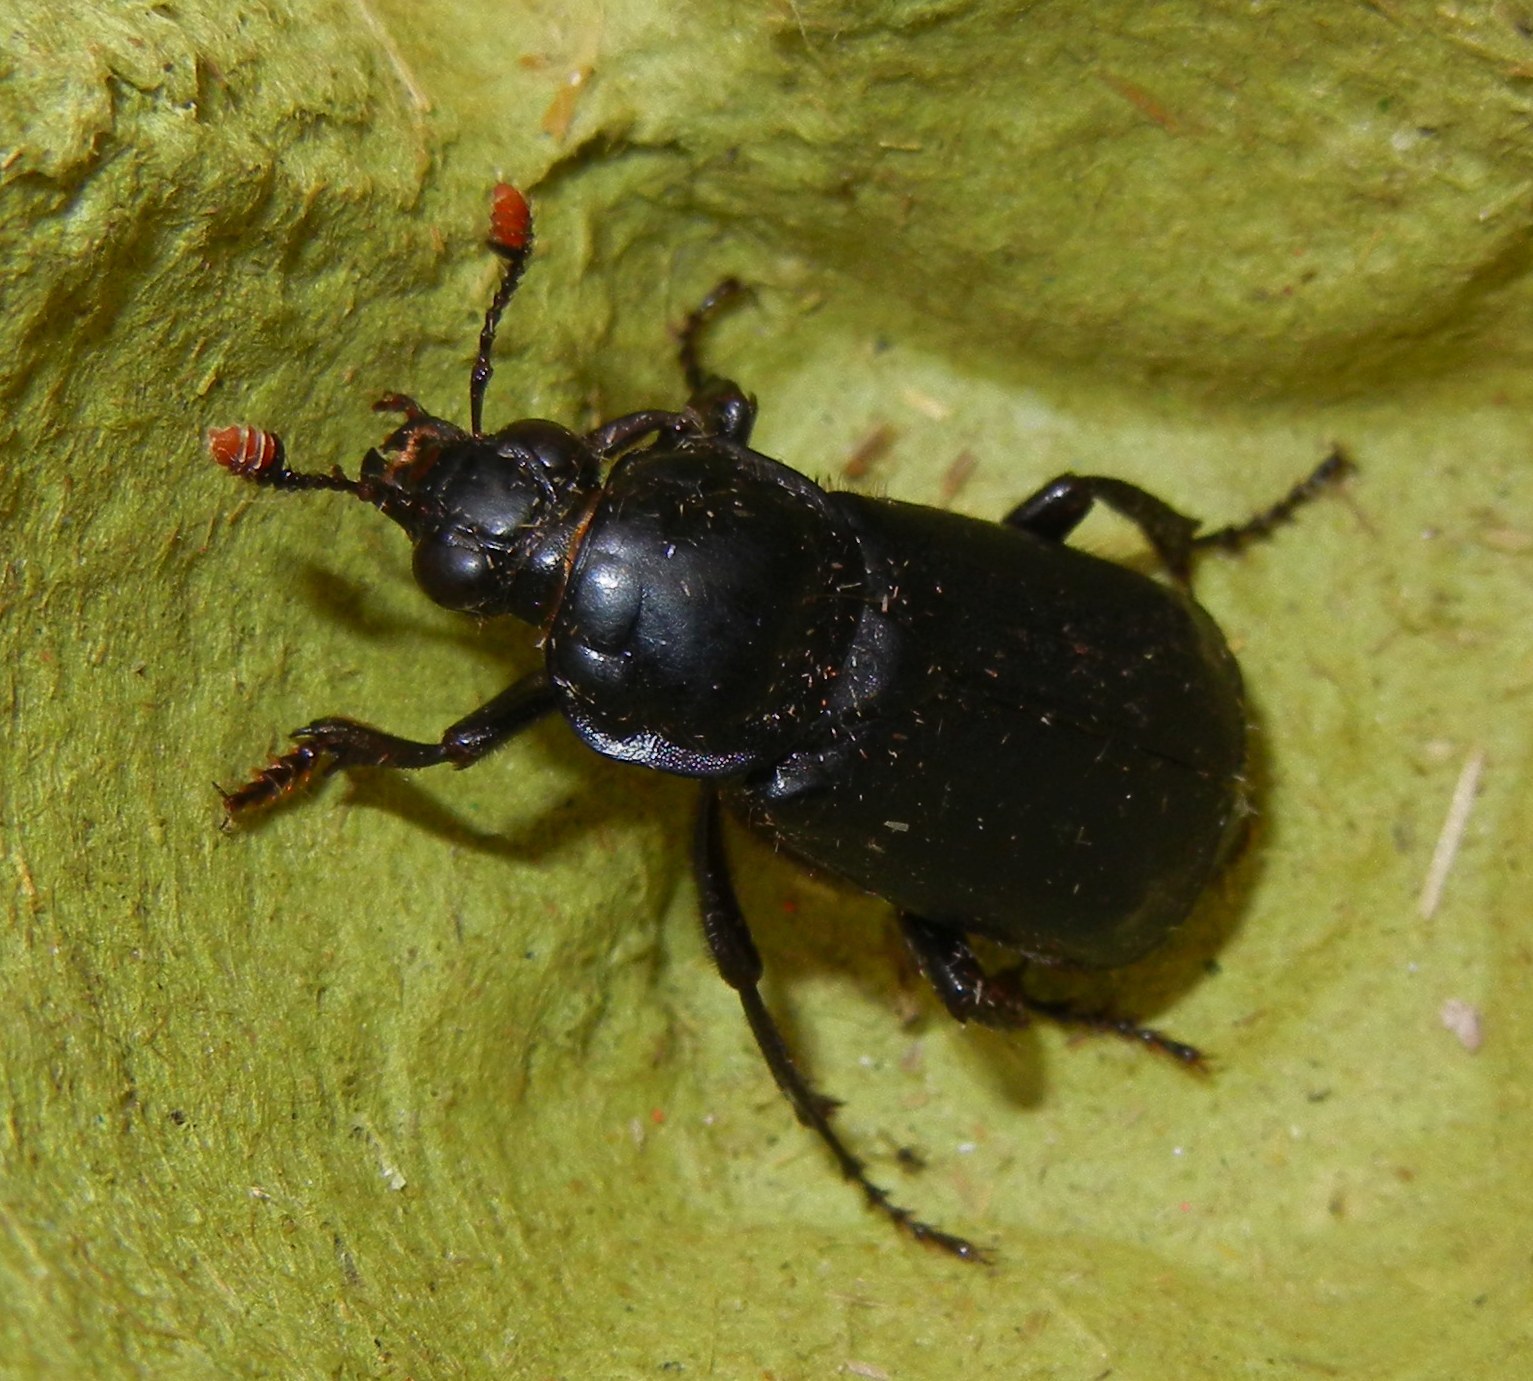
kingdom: Animalia
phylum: Arthropoda
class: Insecta
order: Coleoptera
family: Staphylinidae
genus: Nicrophorus
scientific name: Nicrophorus humator
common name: Black sexton beetle
